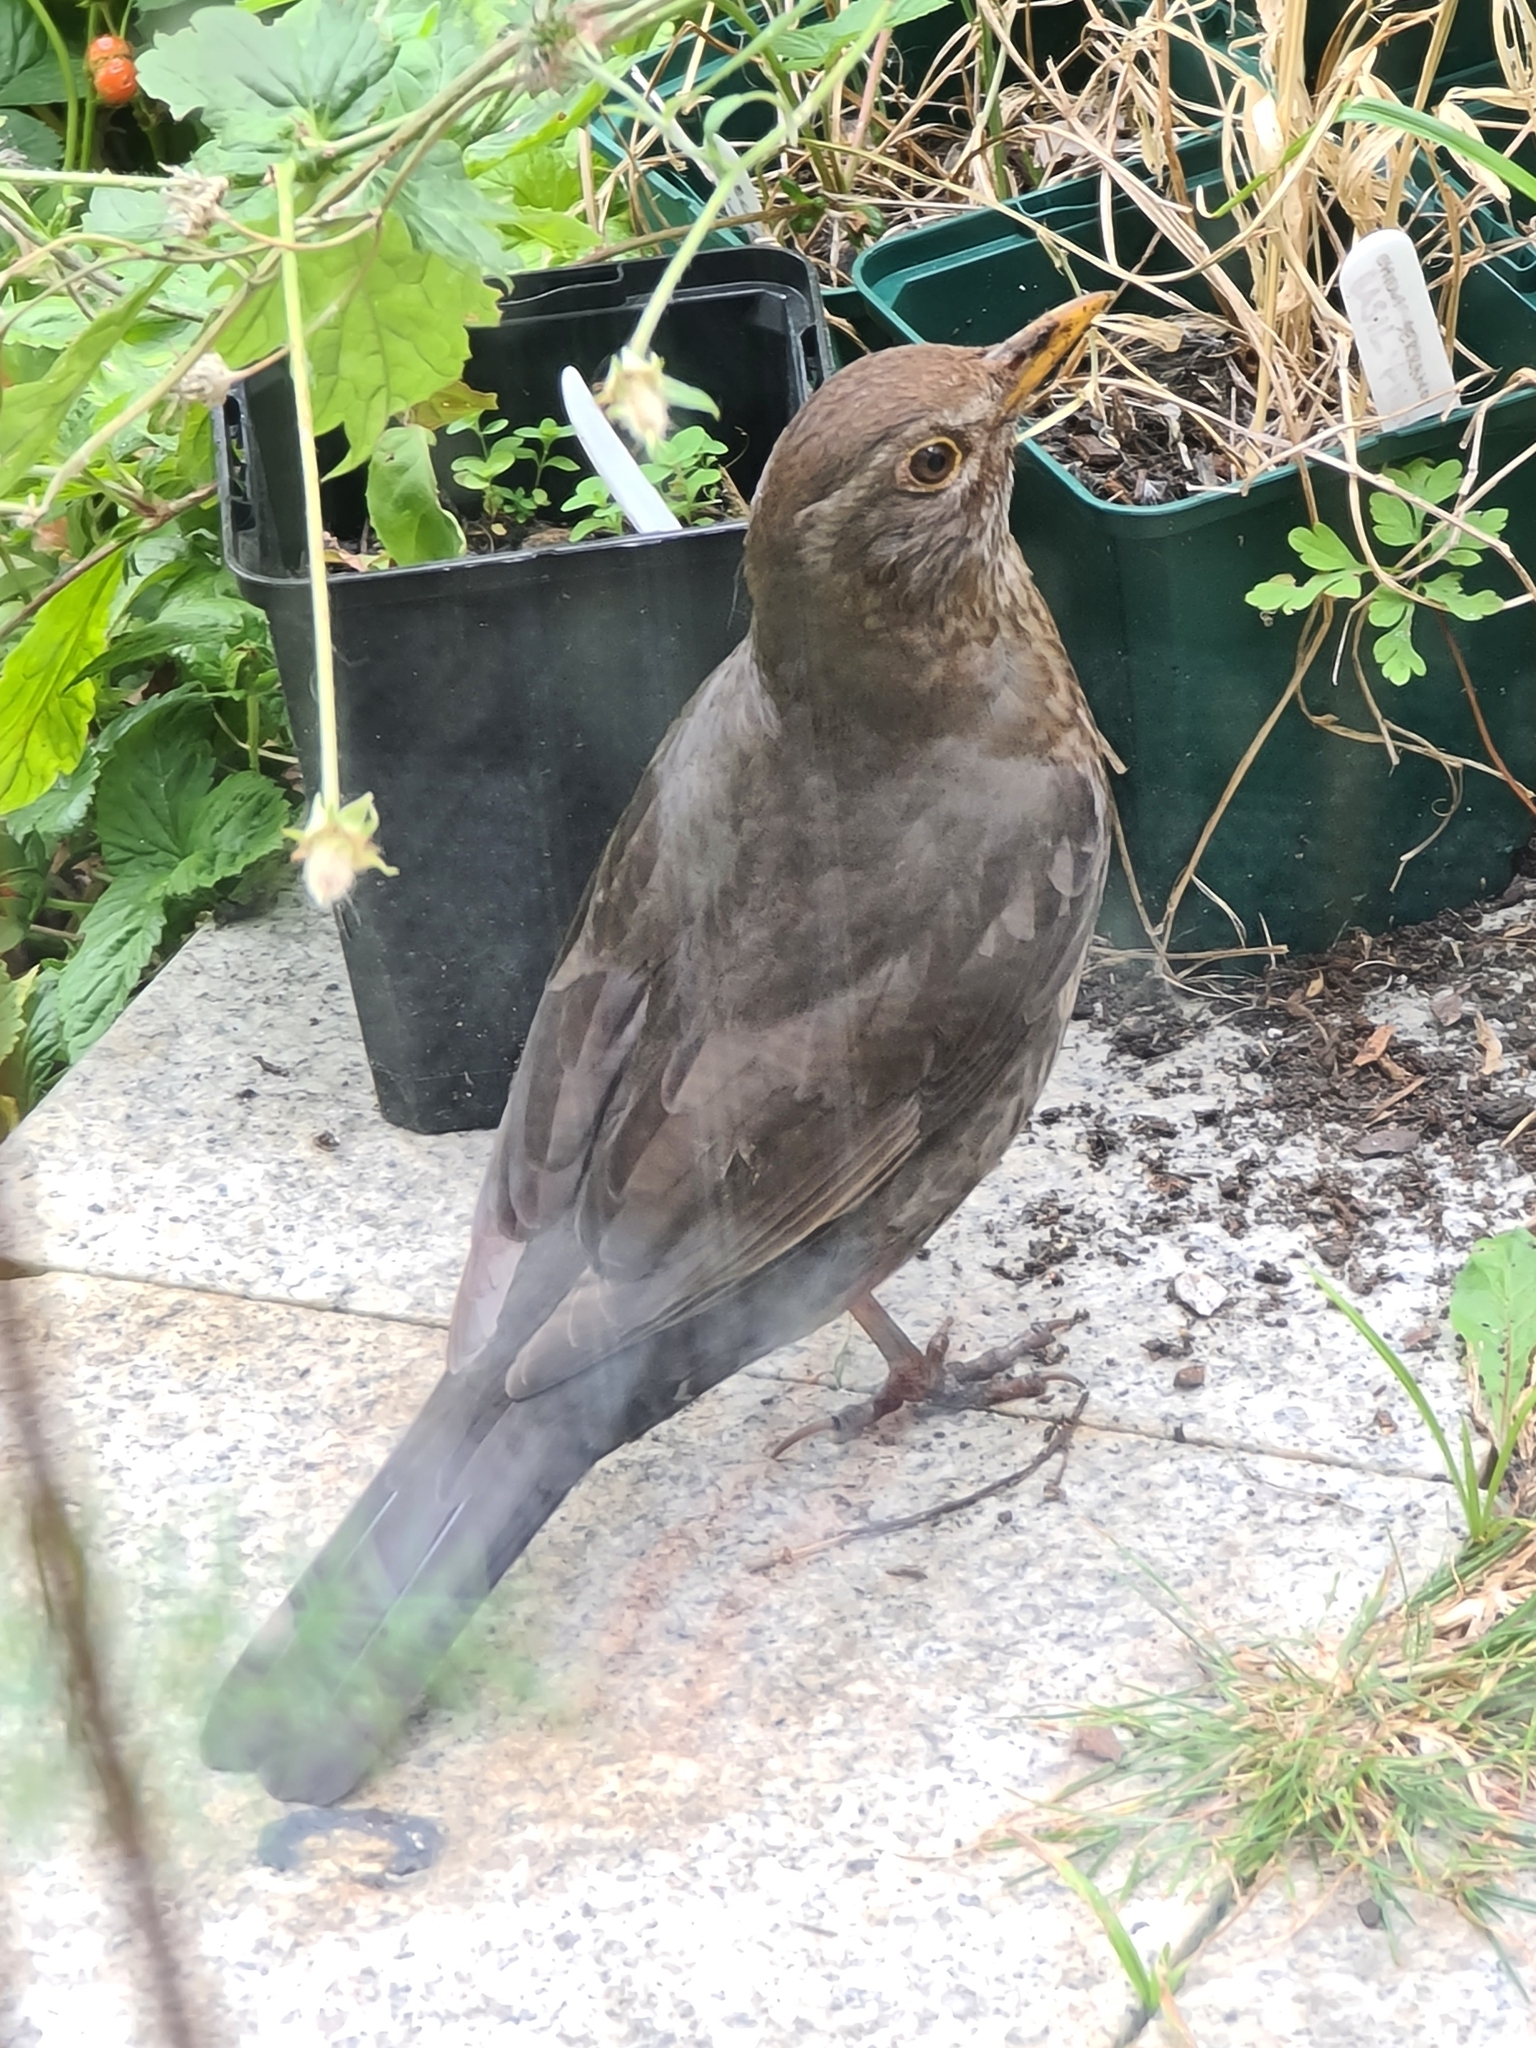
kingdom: Animalia
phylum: Chordata
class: Aves
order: Passeriformes
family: Turdidae
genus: Turdus
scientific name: Turdus merula
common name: Common blackbird
